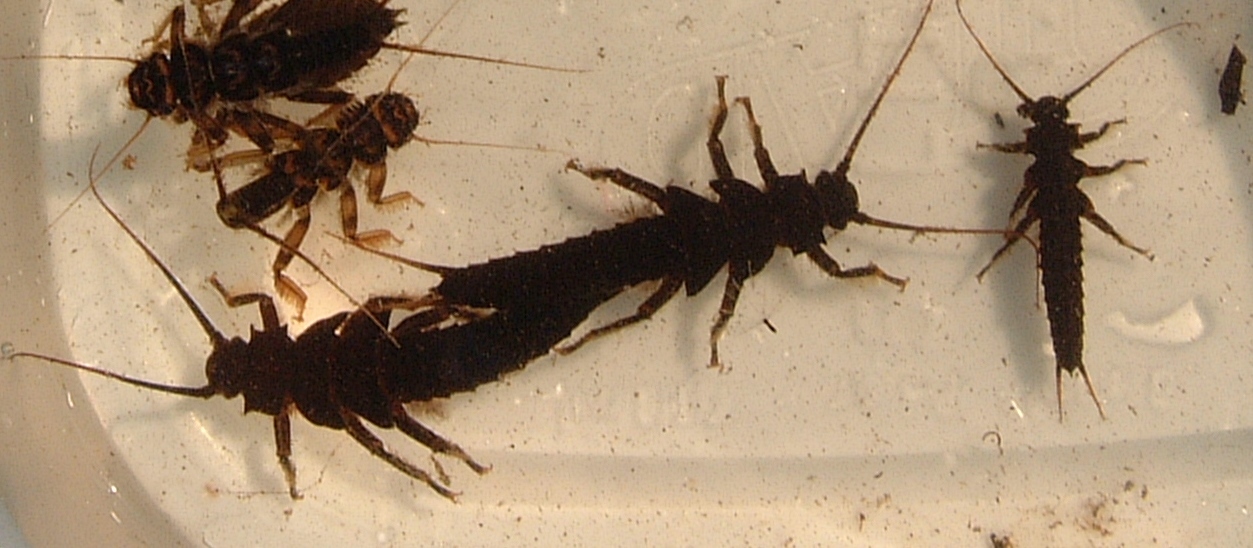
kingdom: Animalia
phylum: Arthropoda
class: Insecta
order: Plecoptera
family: Pteronarcyidae
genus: Pteronarcys
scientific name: Pteronarcys dorsata
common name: American salmonfly
